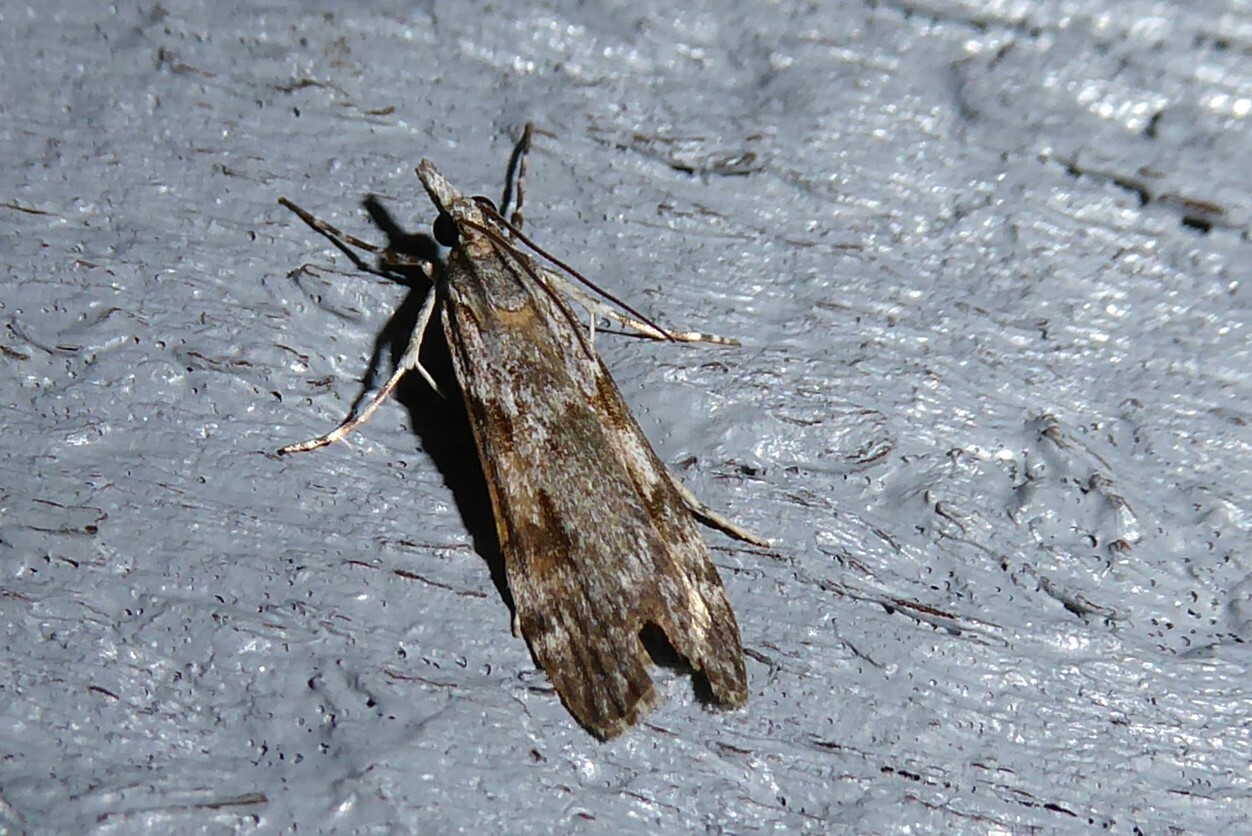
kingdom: Animalia
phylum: Arthropoda
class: Insecta
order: Lepidoptera
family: Crambidae
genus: Scoparia
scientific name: Scoparia halopis
